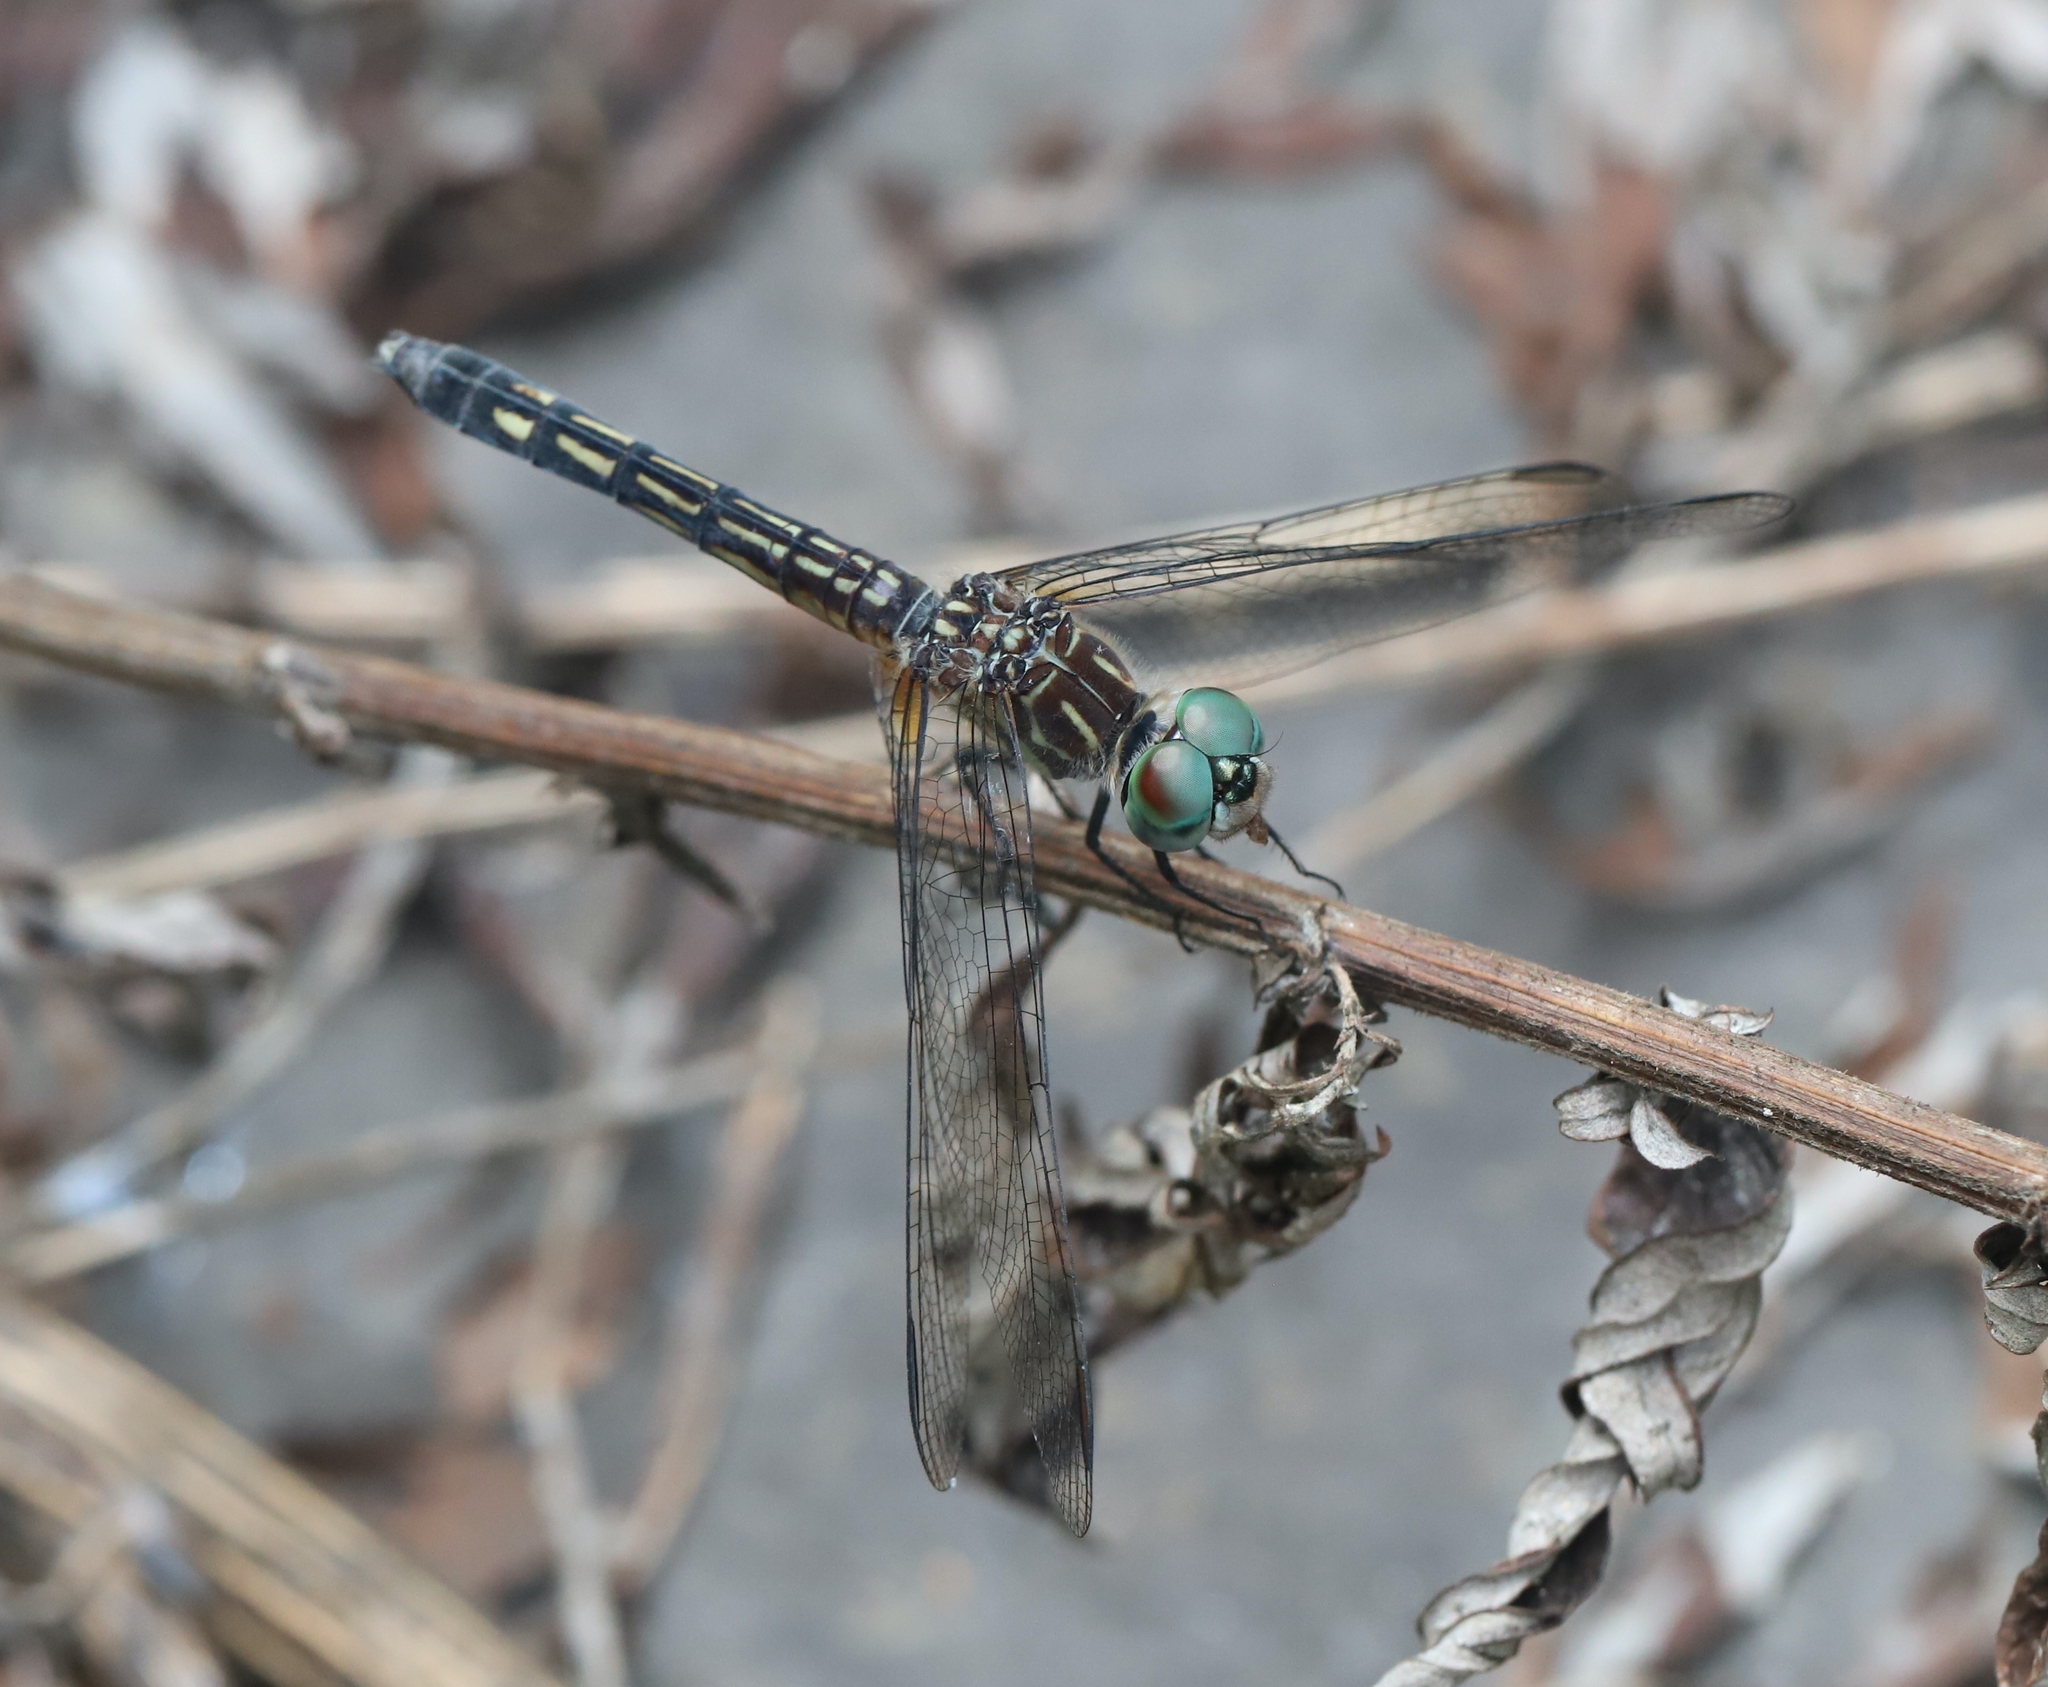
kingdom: Animalia
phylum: Arthropoda
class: Insecta
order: Odonata
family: Libellulidae
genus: Pachydiplax
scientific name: Pachydiplax longipennis
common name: Blue dasher
